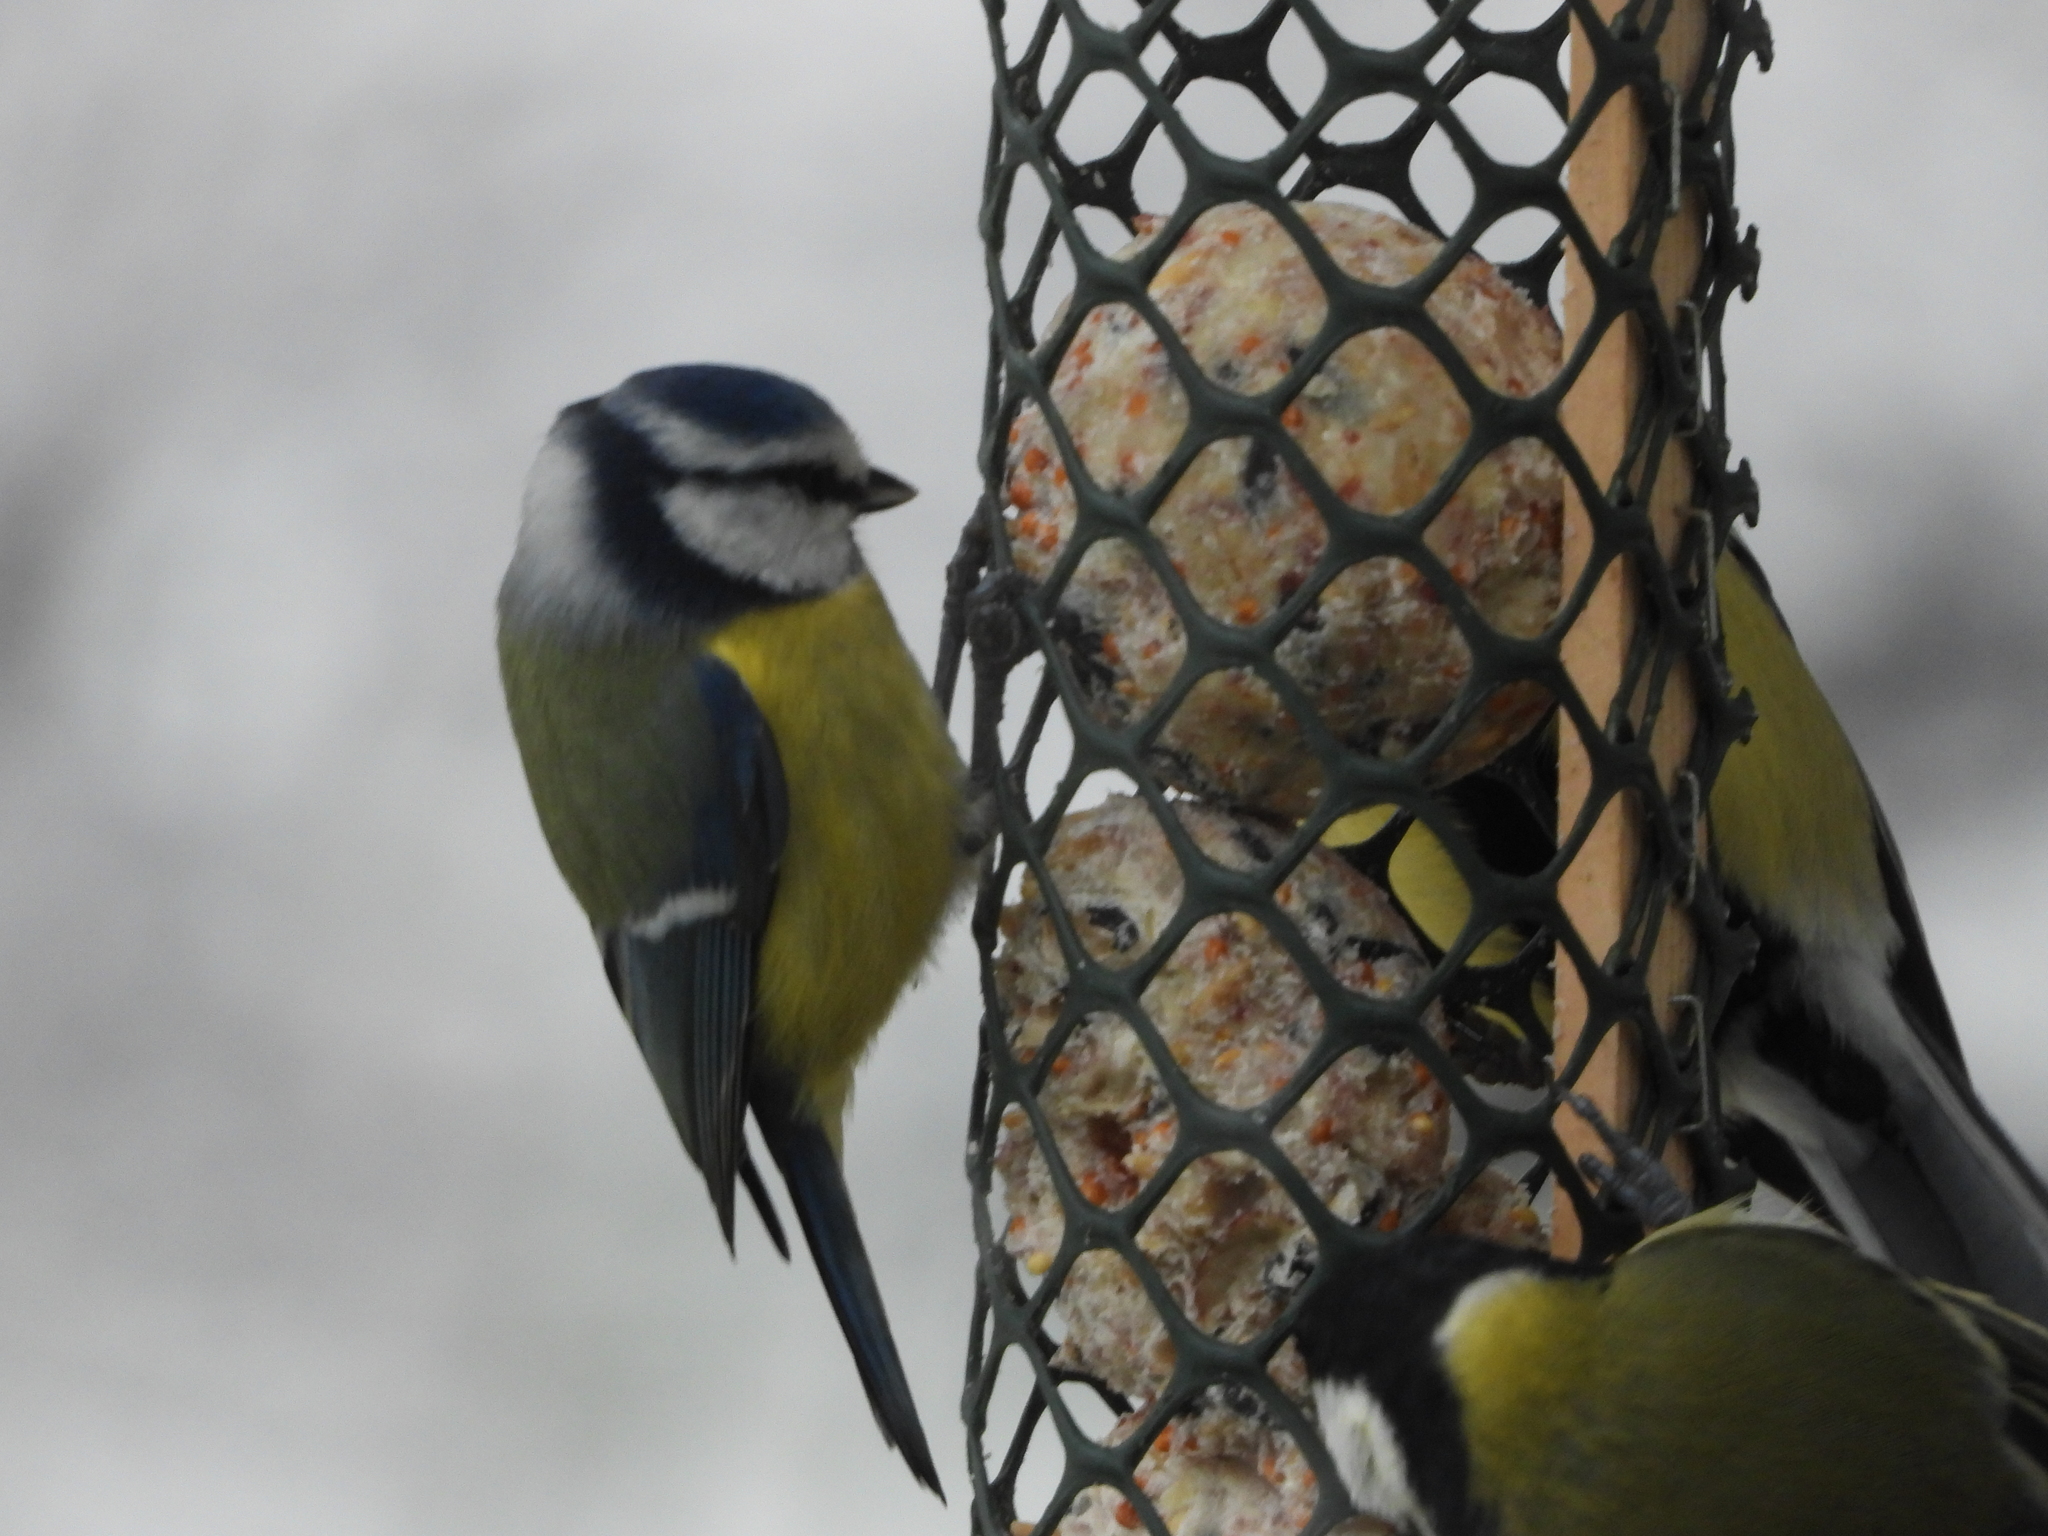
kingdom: Animalia
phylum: Chordata
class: Aves
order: Passeriformes
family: Paridae
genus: Cyanistes
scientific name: Cyanistes caeruleus
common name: Eurasian blue tit
